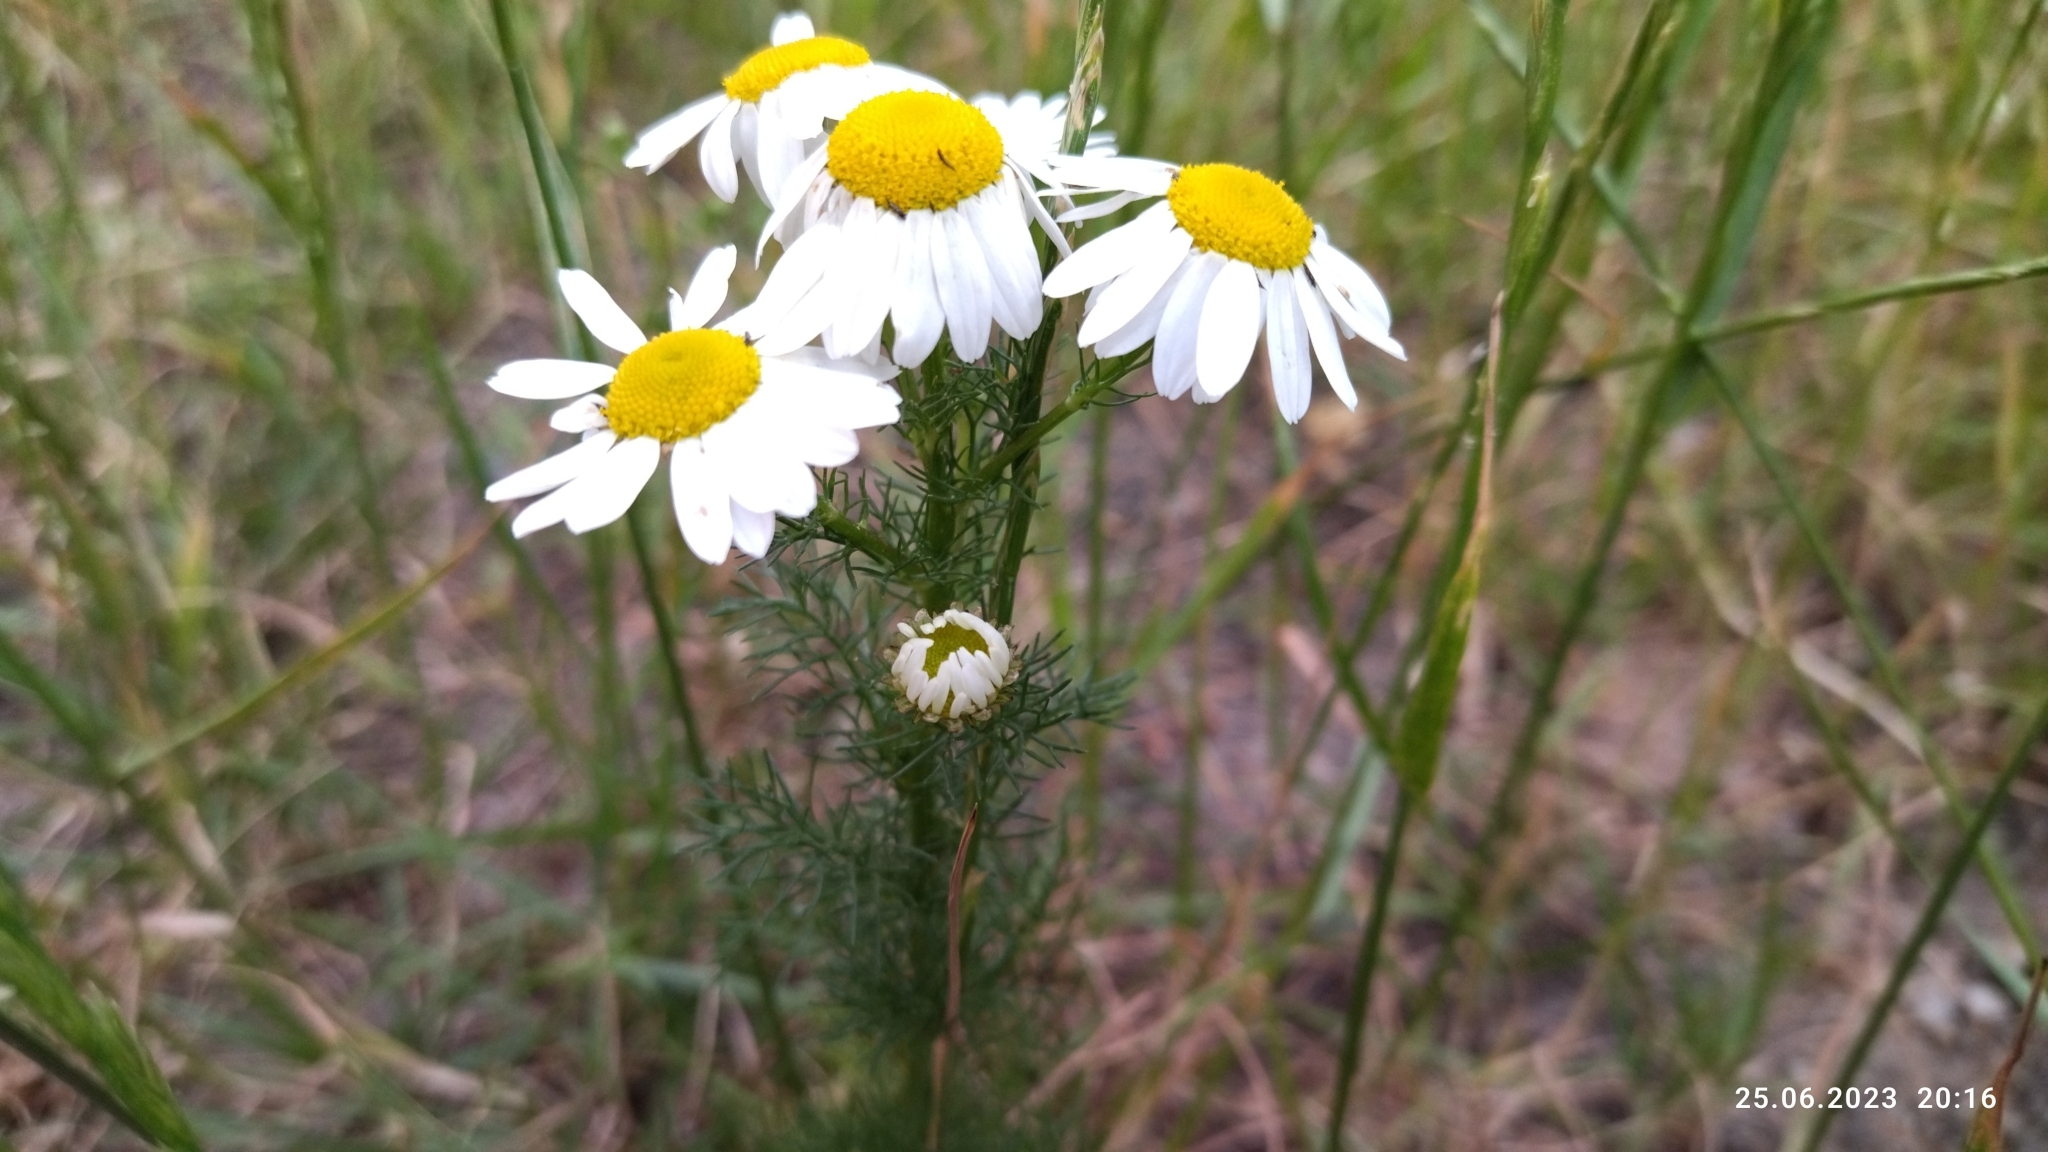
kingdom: Plantae
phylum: Tracheophyta
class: Magnoliopsida
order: Asterales
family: Asteraceae
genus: Tripleurospermum
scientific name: Tripleurospermum inodorum
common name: Scentless mayweed
